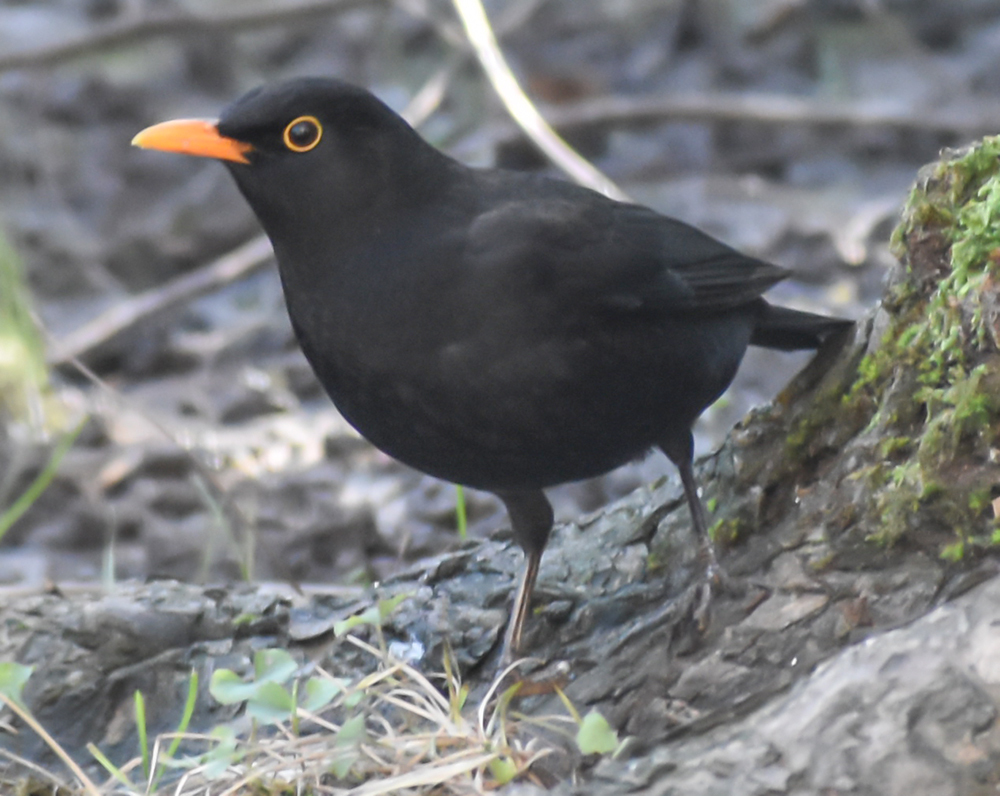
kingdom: Animalia
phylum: Chordata
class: Aves
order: Passeriformes
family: Turdidae
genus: Turdus
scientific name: Turdus merula
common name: Common blackbird
